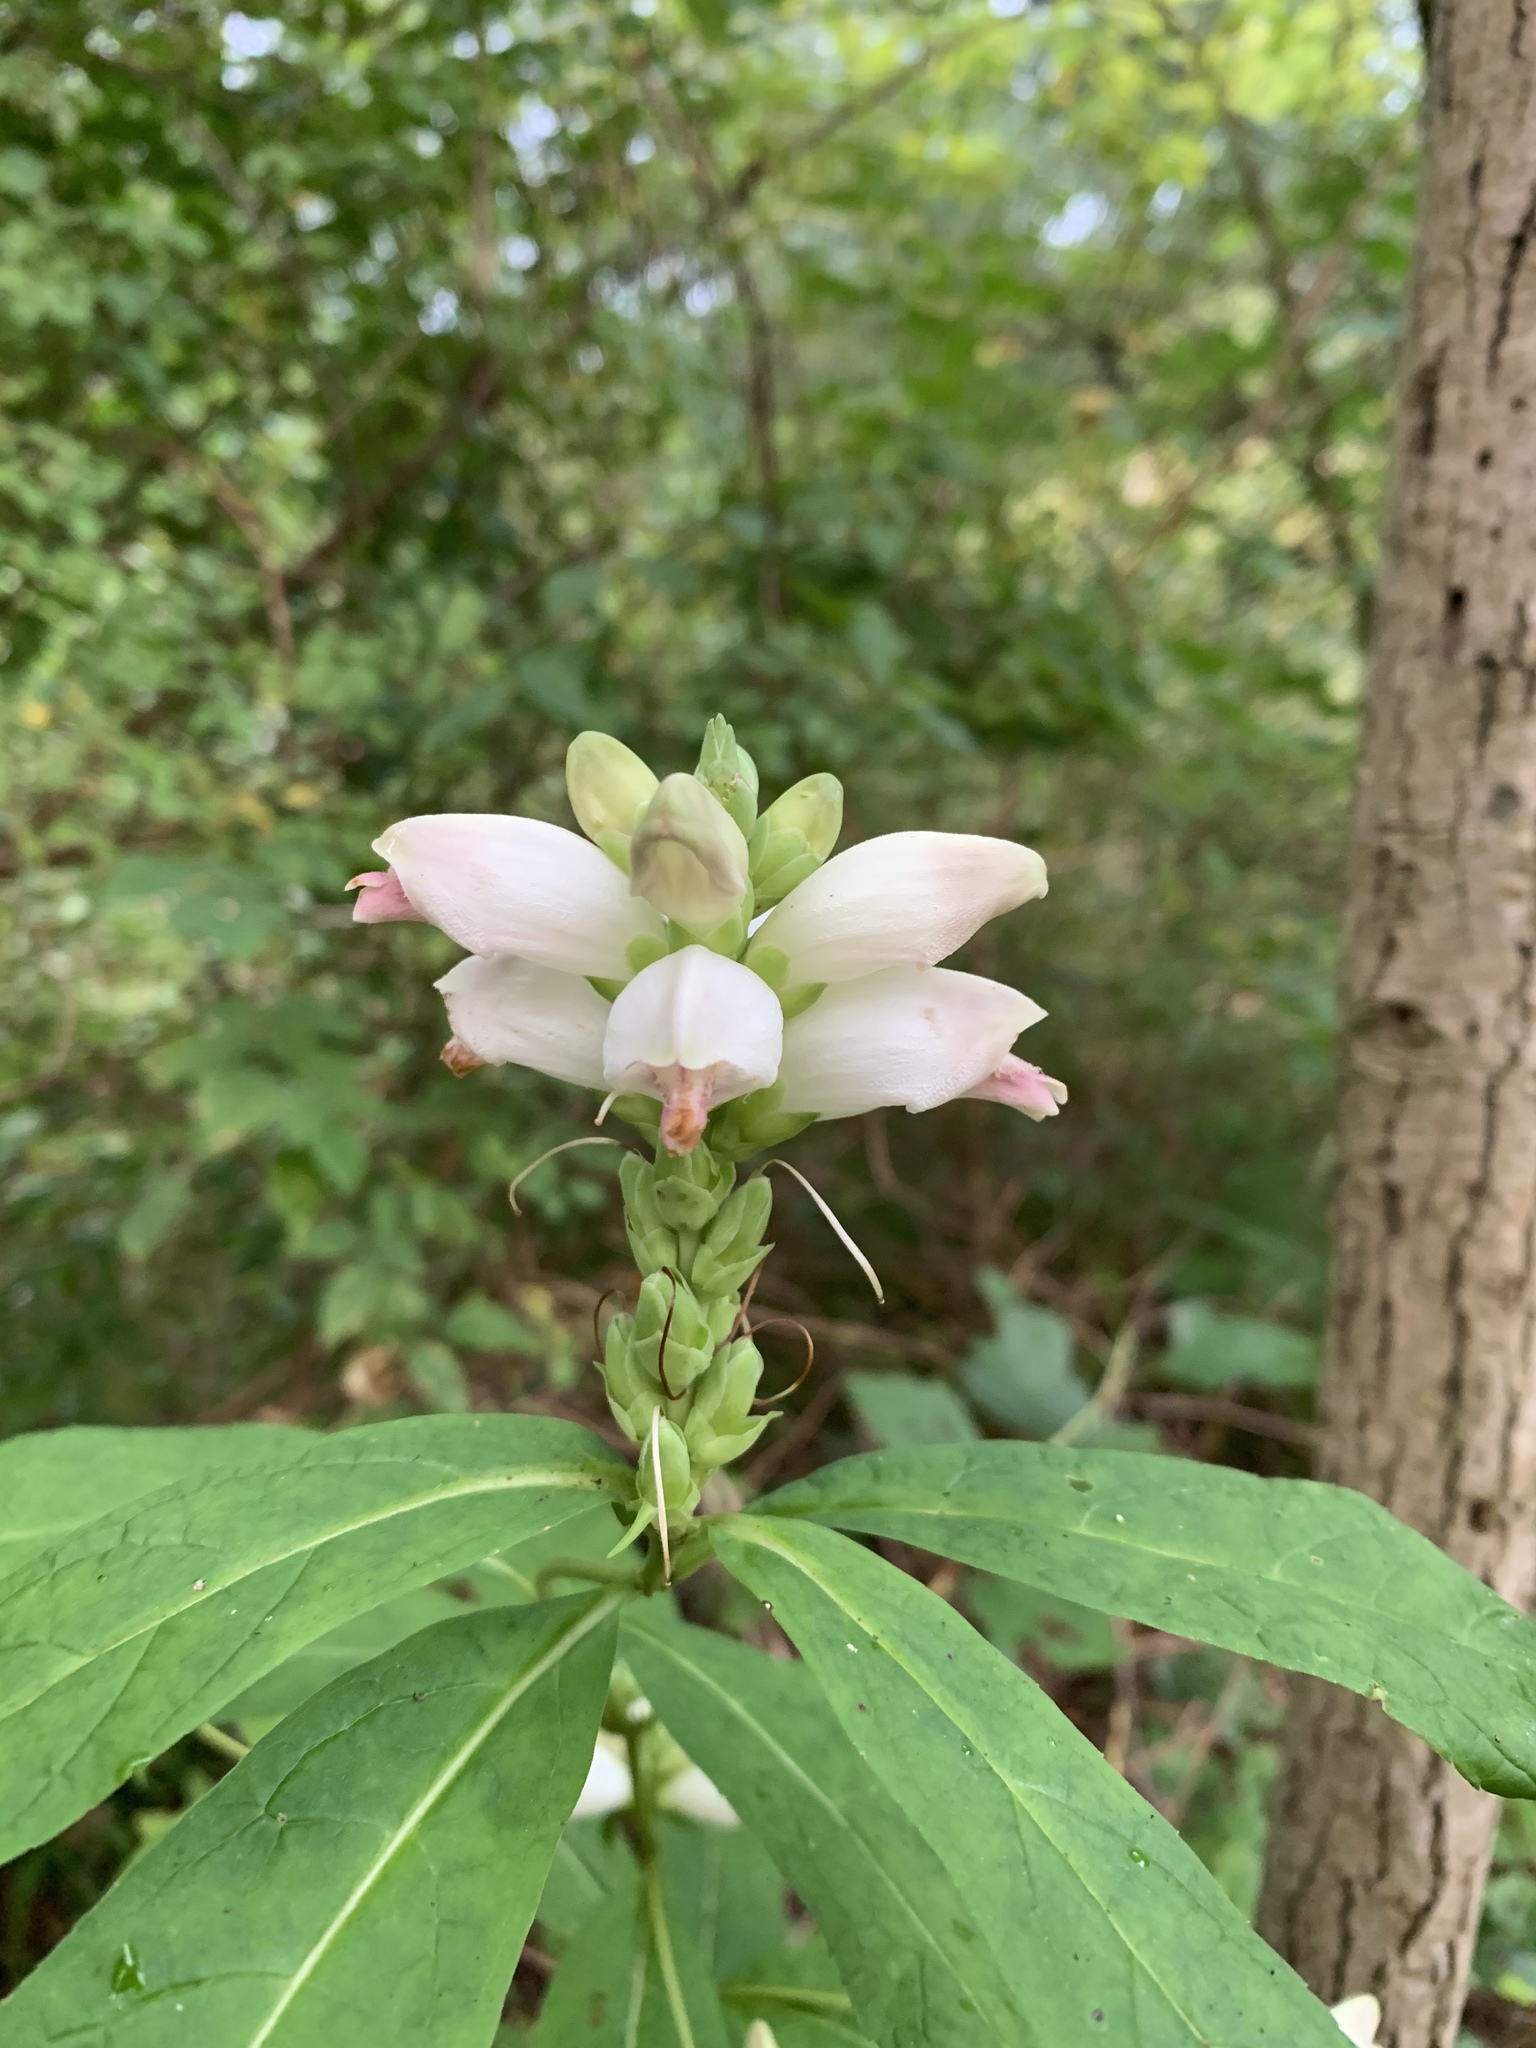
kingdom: Plantae
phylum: Tracheophyta
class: Magnoliopsida
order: Lamiales
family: Plantaginaceae
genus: Chelone
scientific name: Chelone glabra
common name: Snakehead
